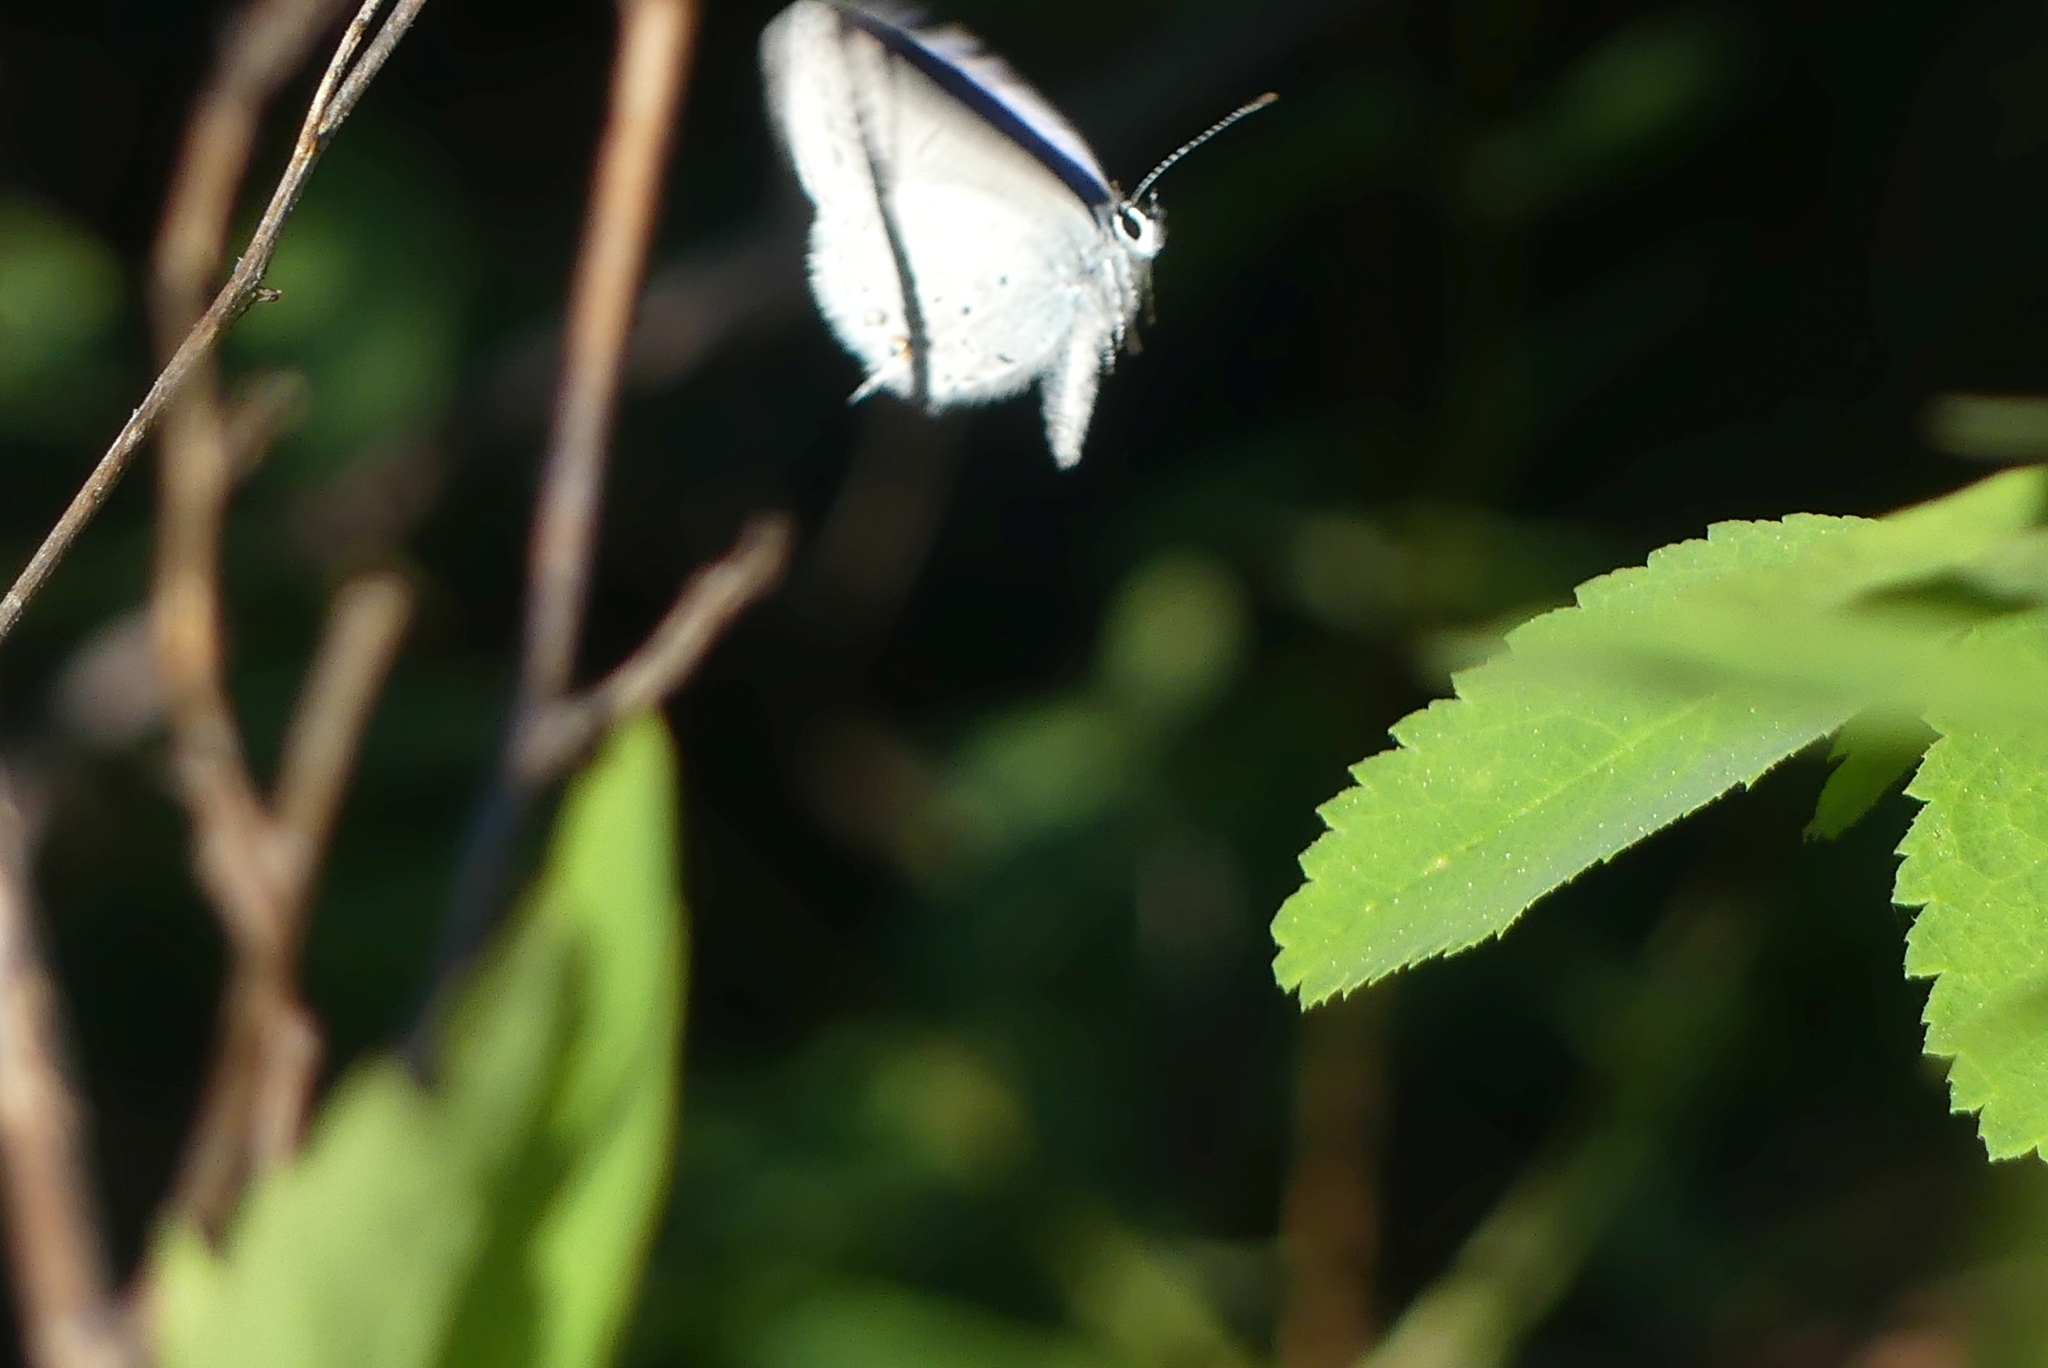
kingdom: Animalia
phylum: Arthropoda
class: Insecta
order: Lepidoptera
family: Lycaenidae
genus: Elkalyce
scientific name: Elkalyce amyntula
